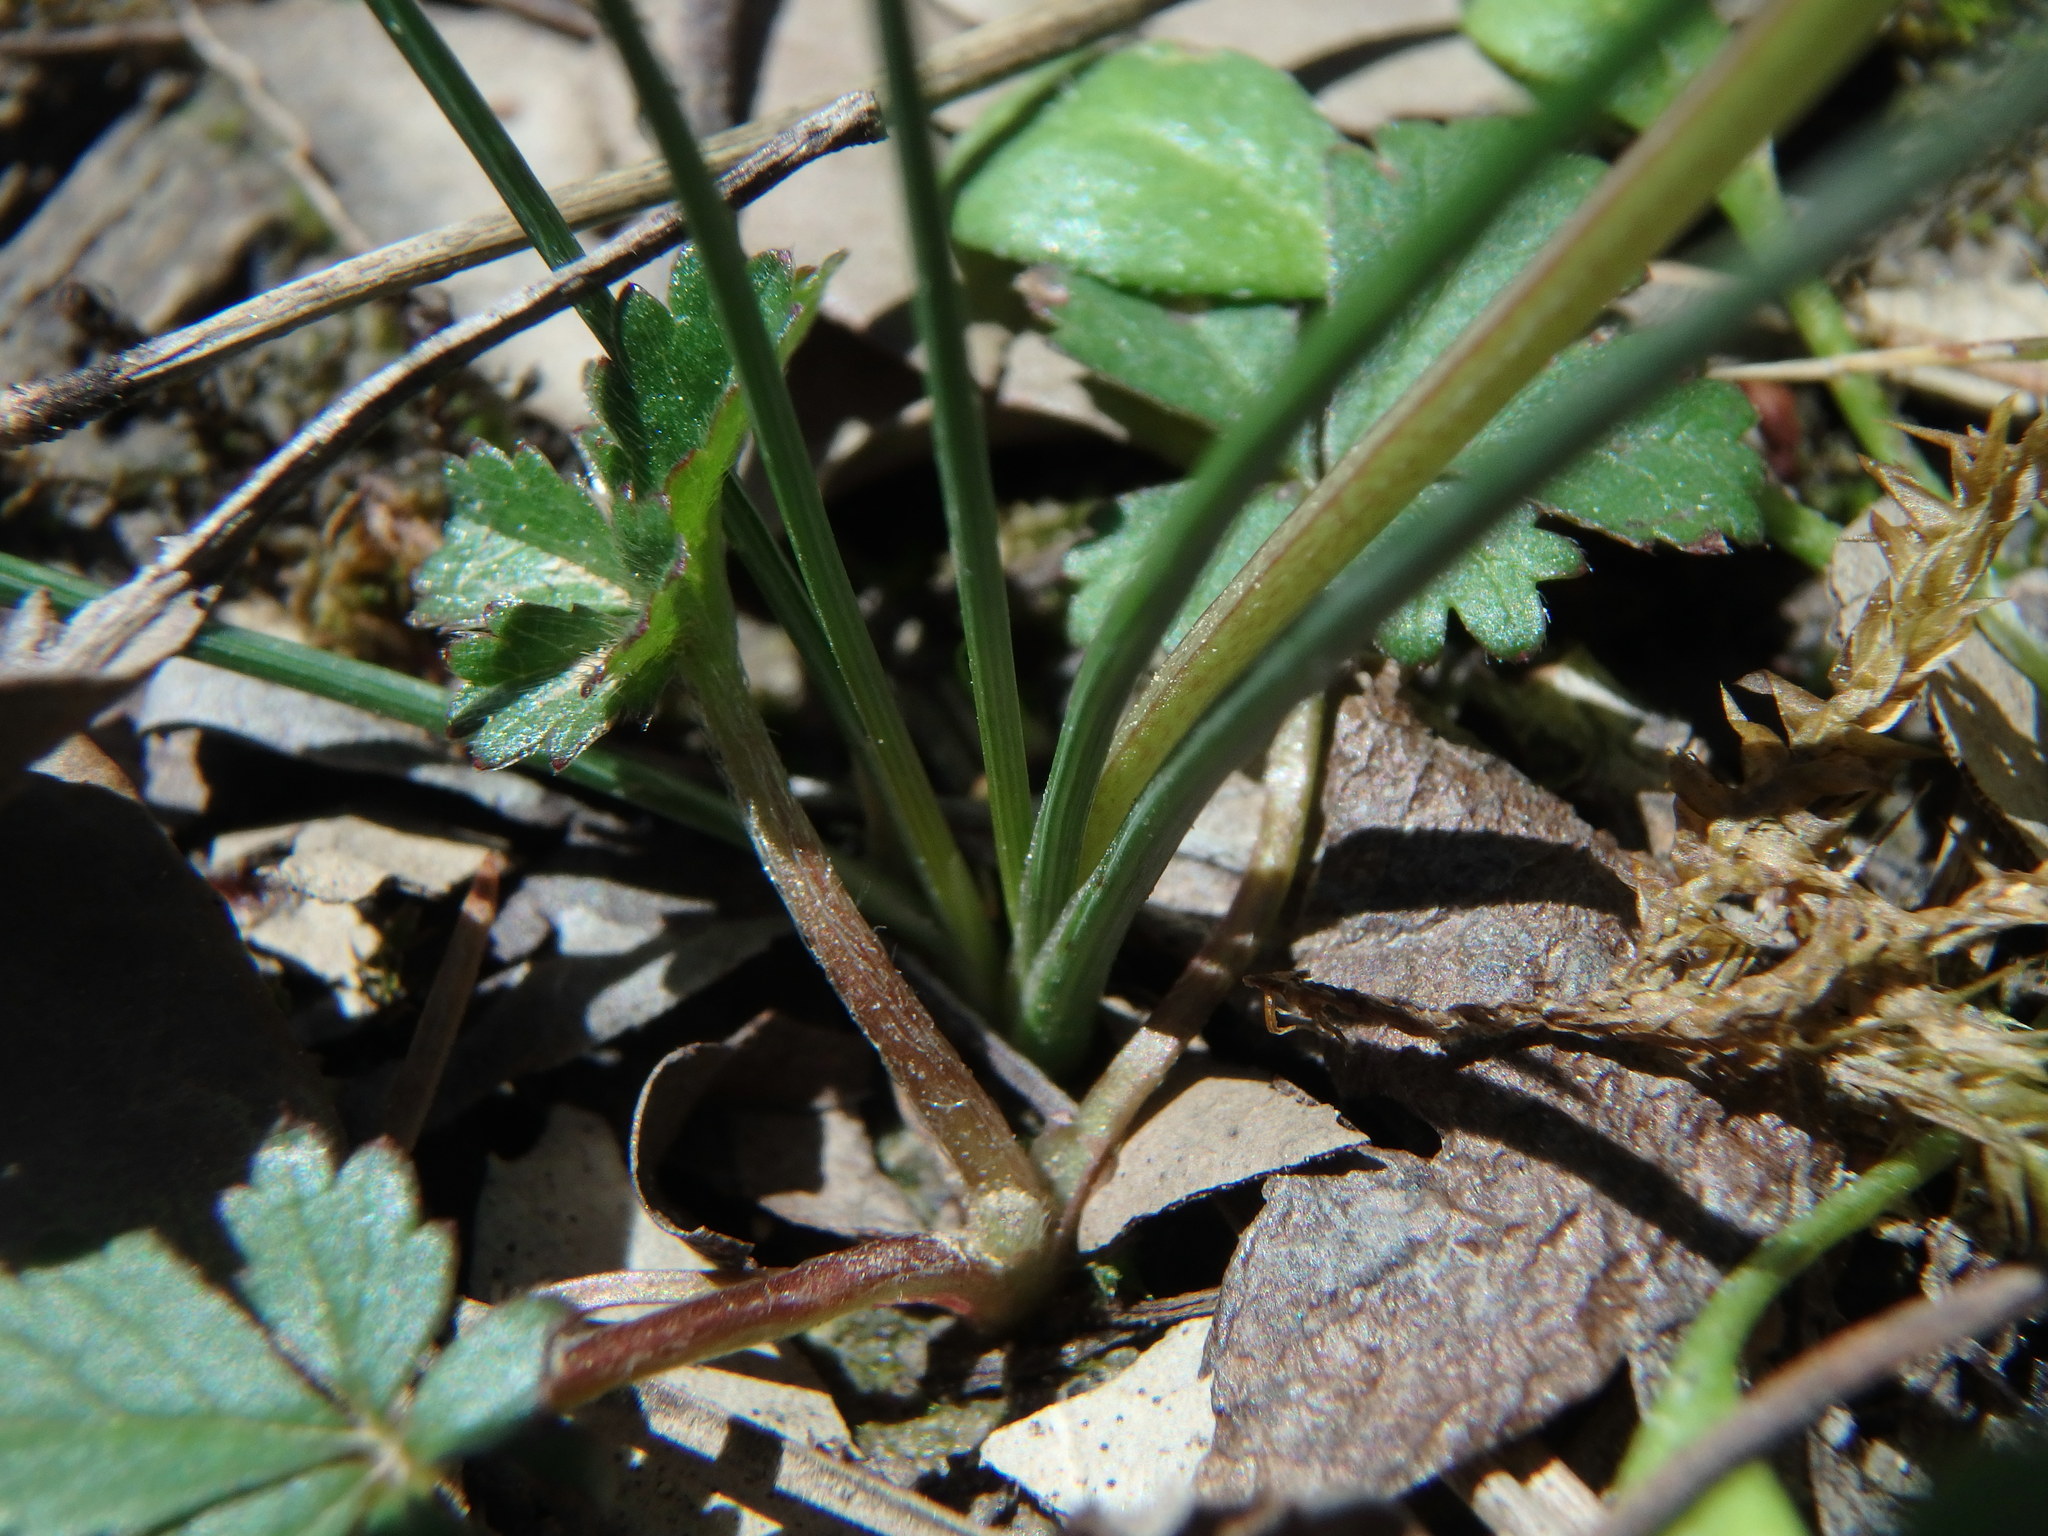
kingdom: Plantae
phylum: Tracheophyta
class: Liliopsida
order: Asparagales
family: Iridaceae
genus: Romulea
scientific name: Romulea columnae
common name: Sand-crocus
